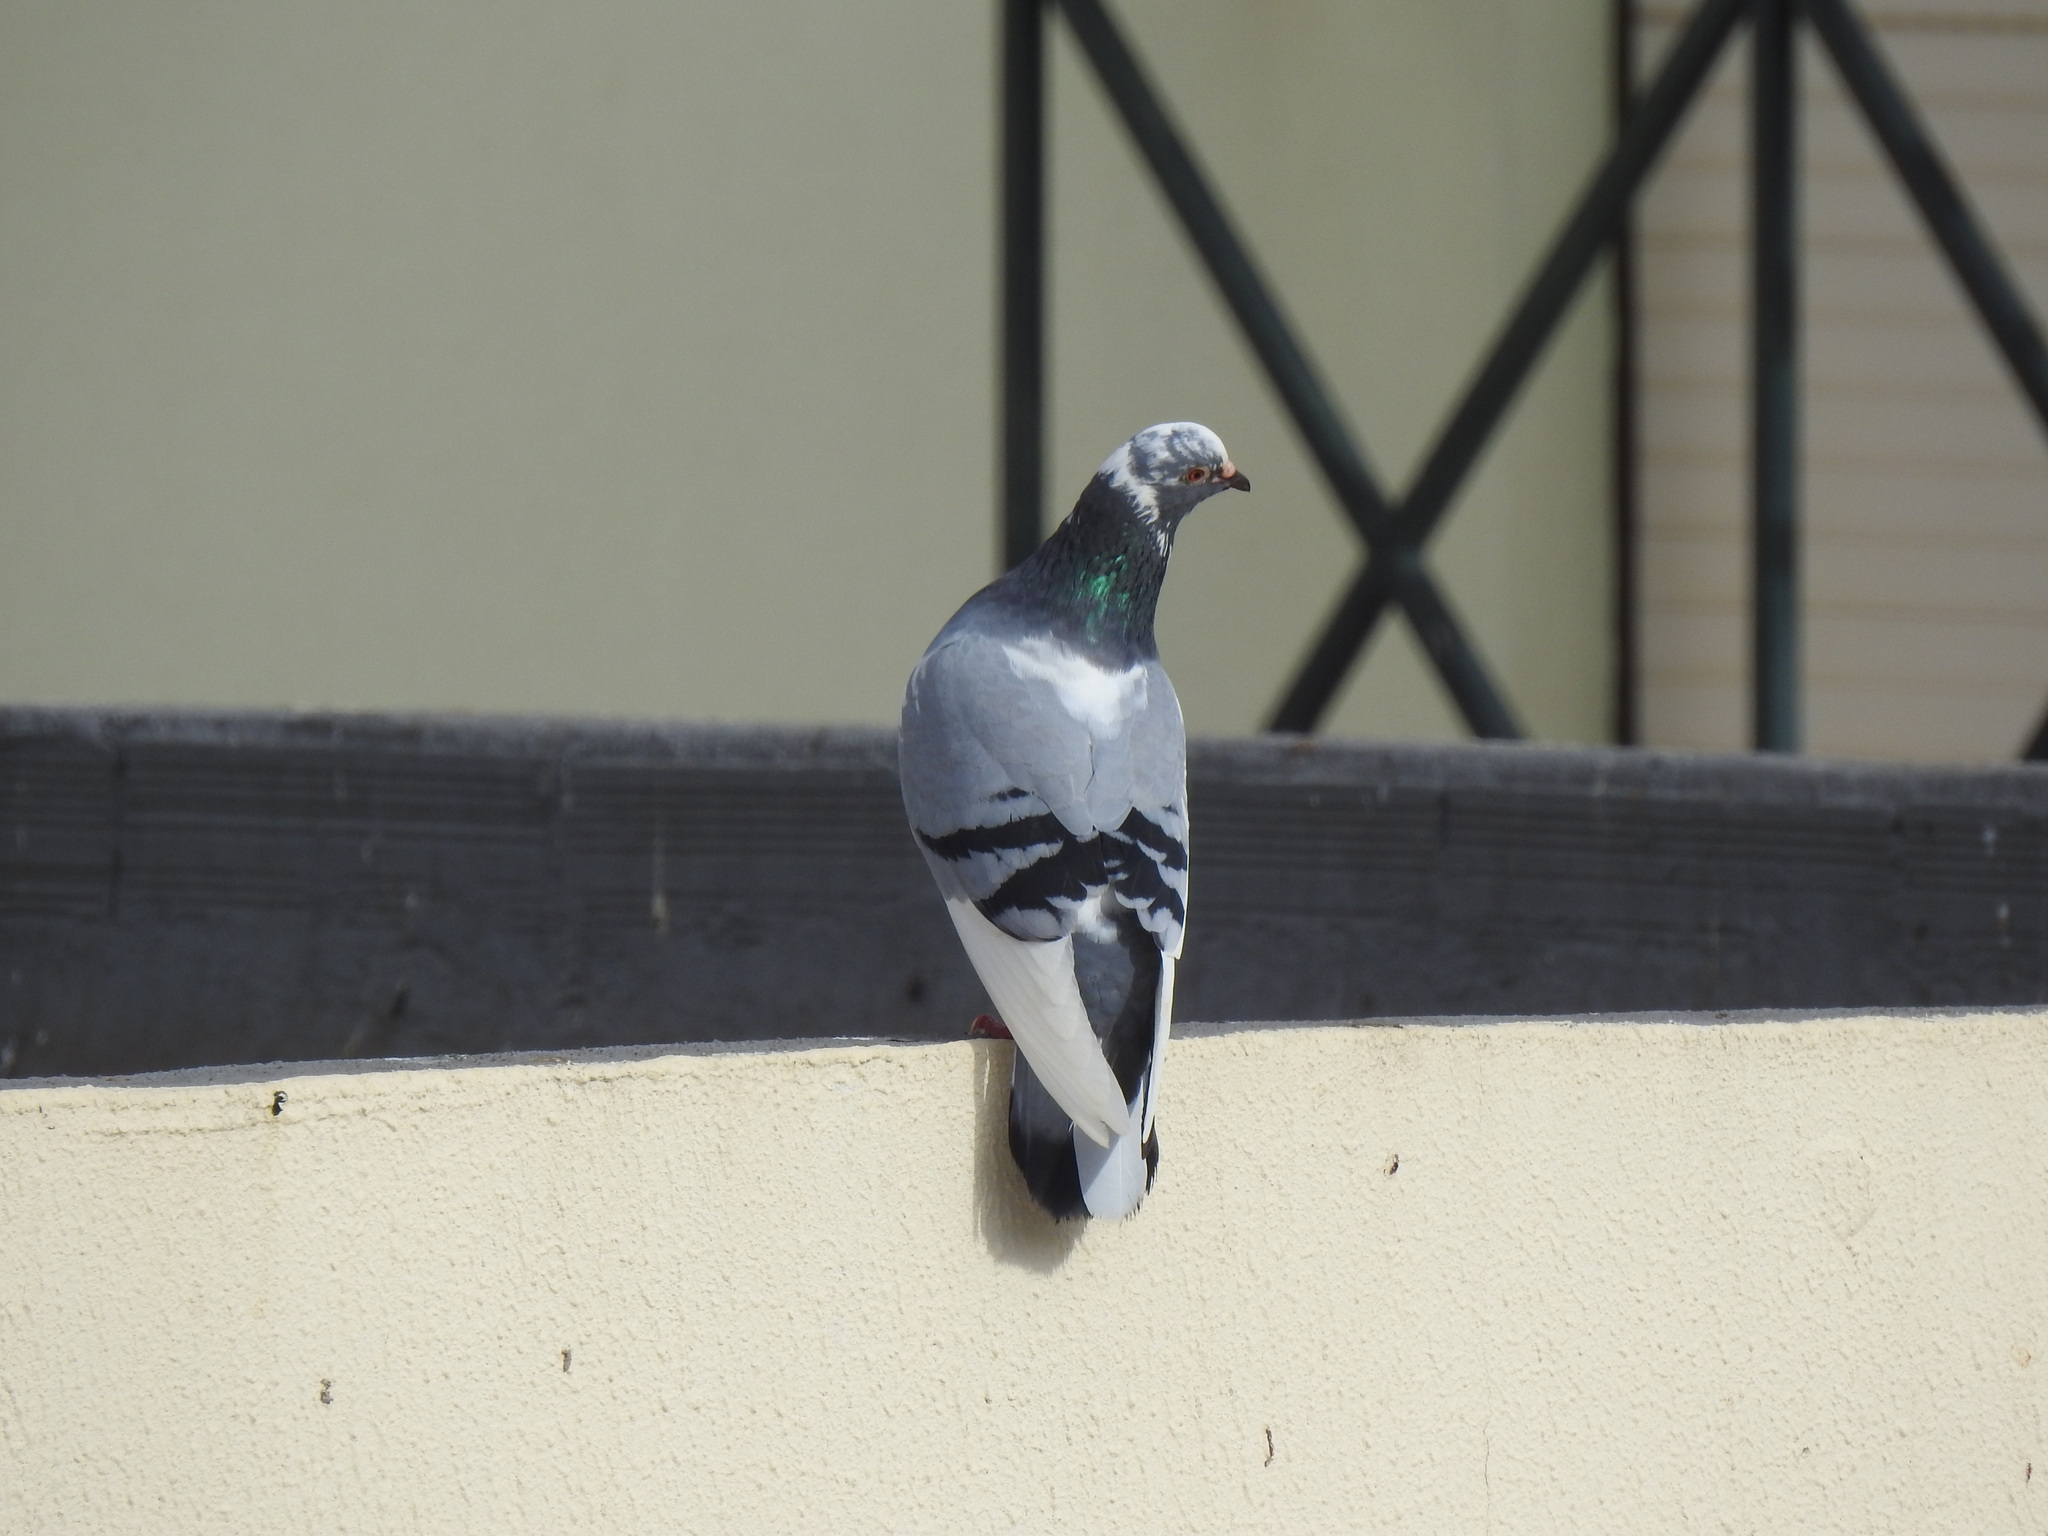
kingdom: Animalia
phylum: Chordata
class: Aves
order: Columbiformes
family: Columbidae
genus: Columba
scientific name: Columba livia
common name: Rock pigeon
